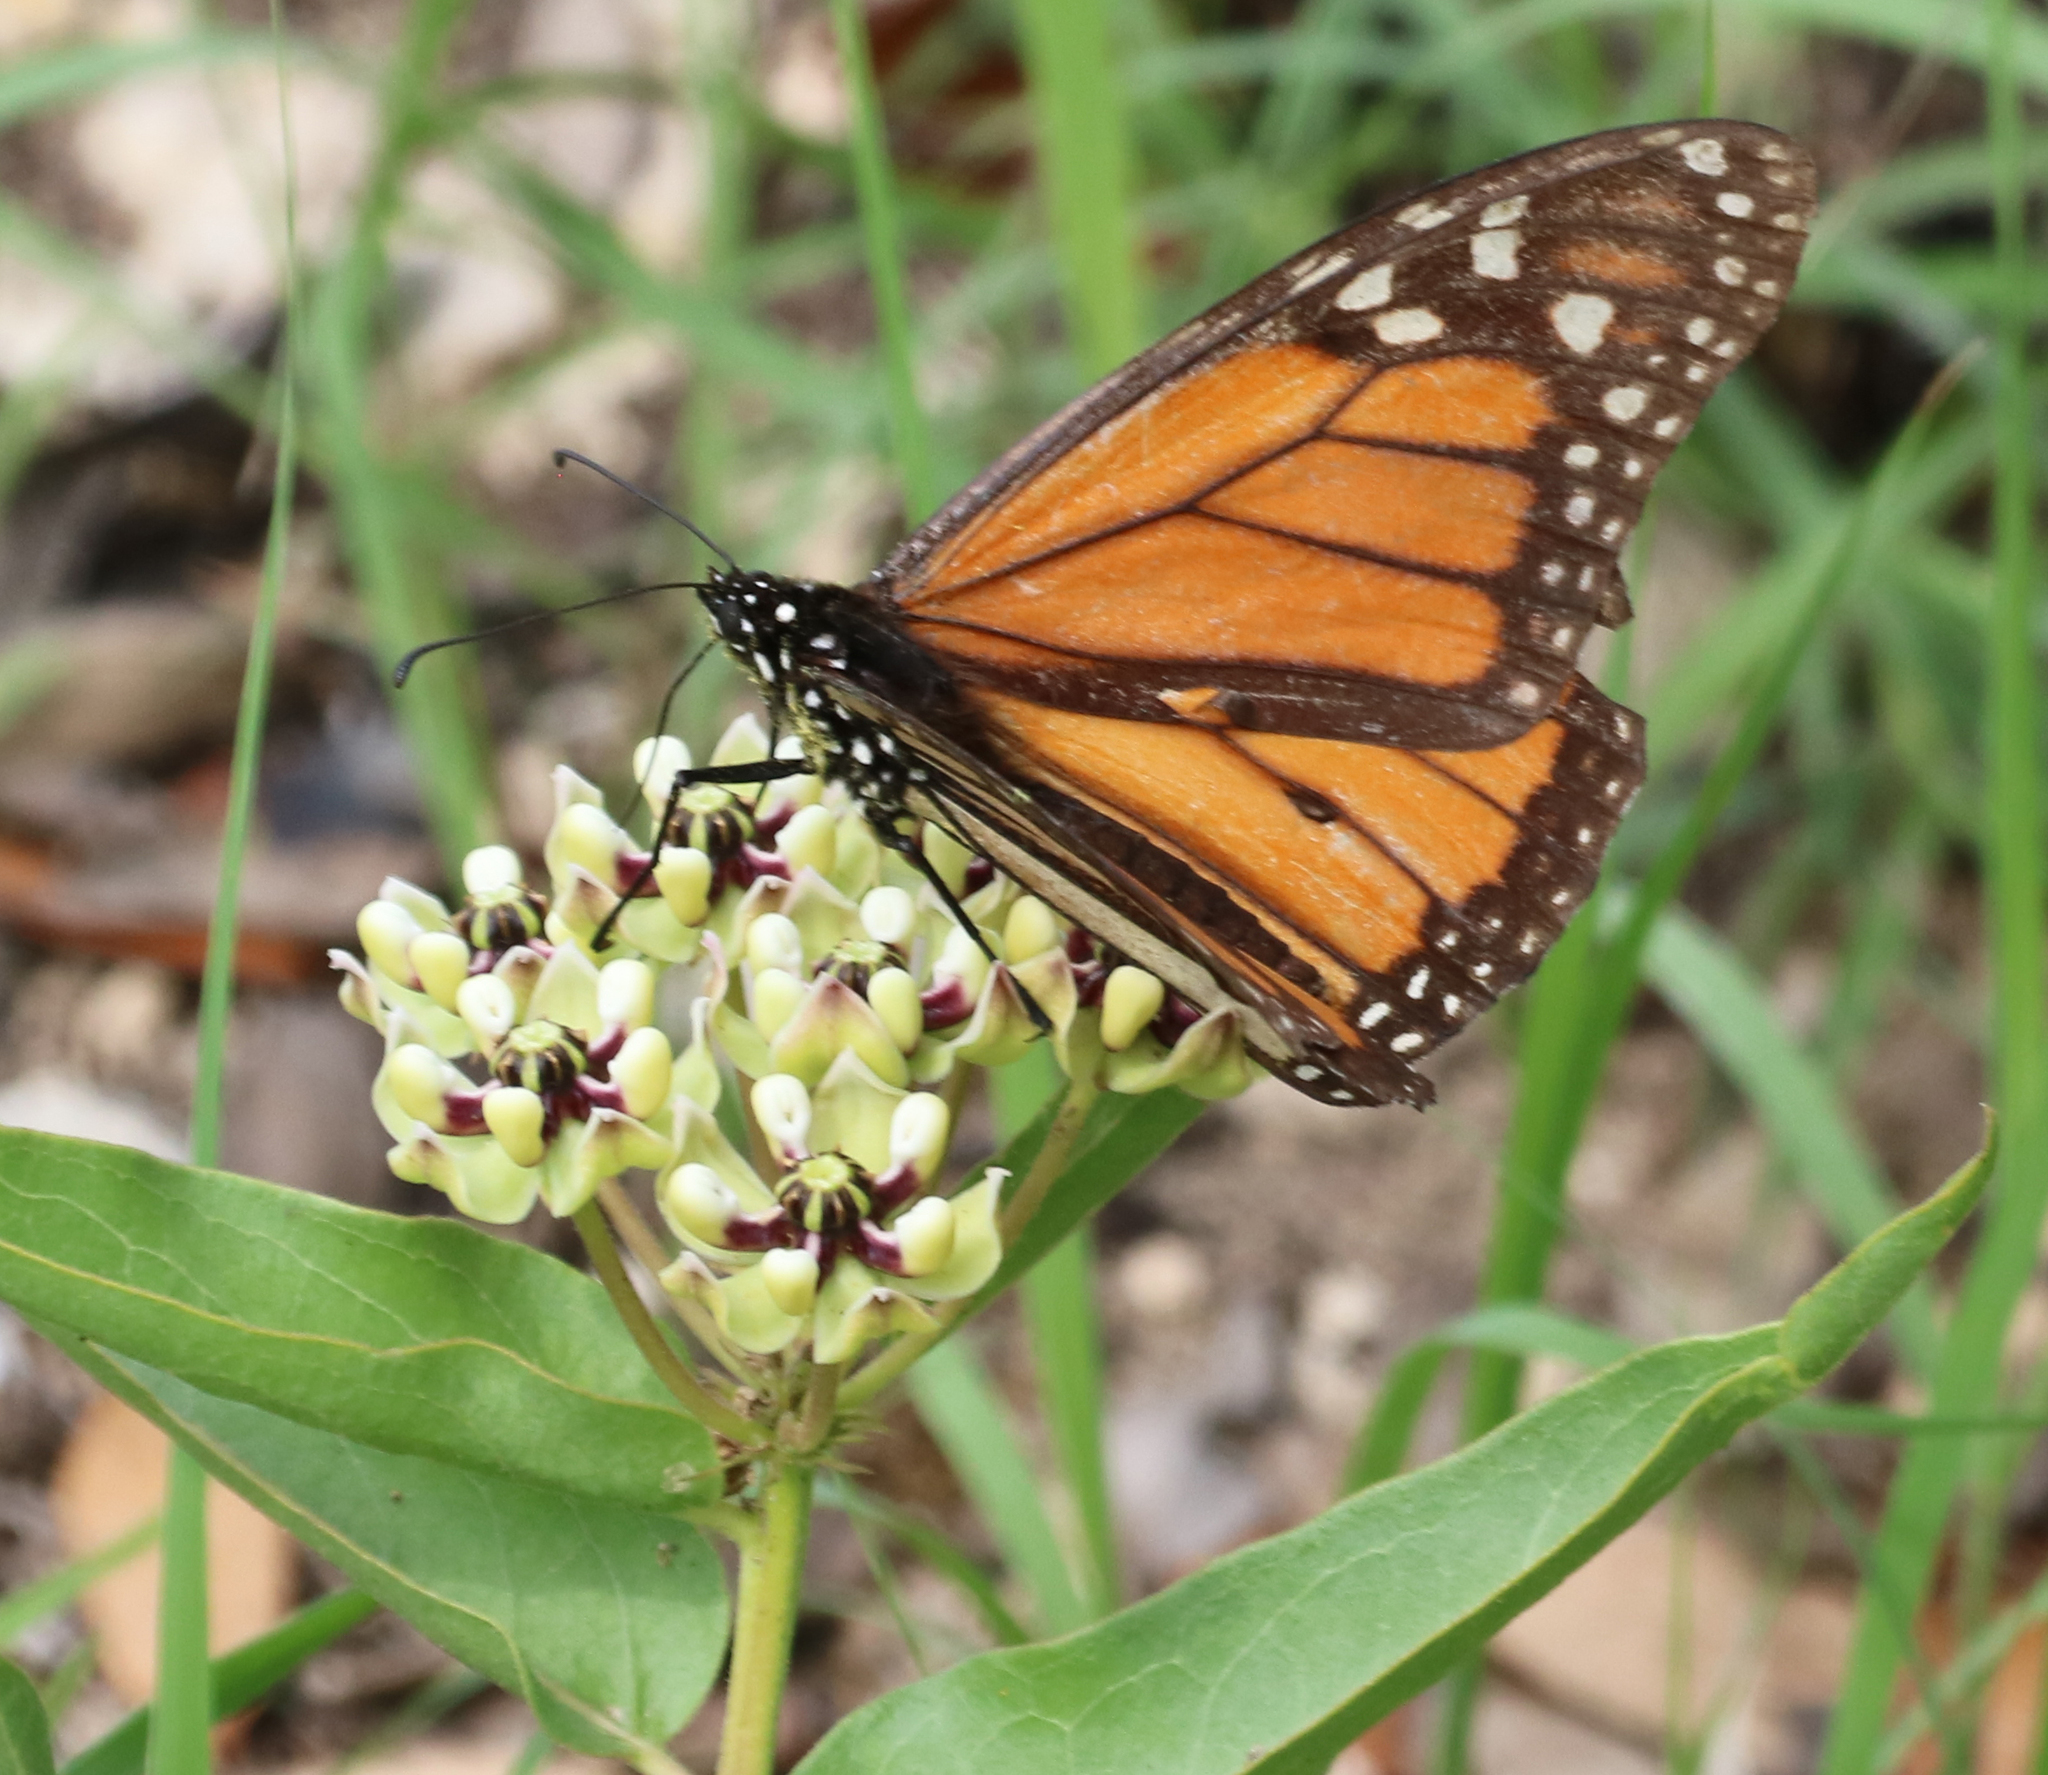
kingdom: Animalia
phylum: Arthropoda
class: Insecta
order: Lepidoptera
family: Nymphalidae
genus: Danaus
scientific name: Danaus plexippus
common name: Monarch
